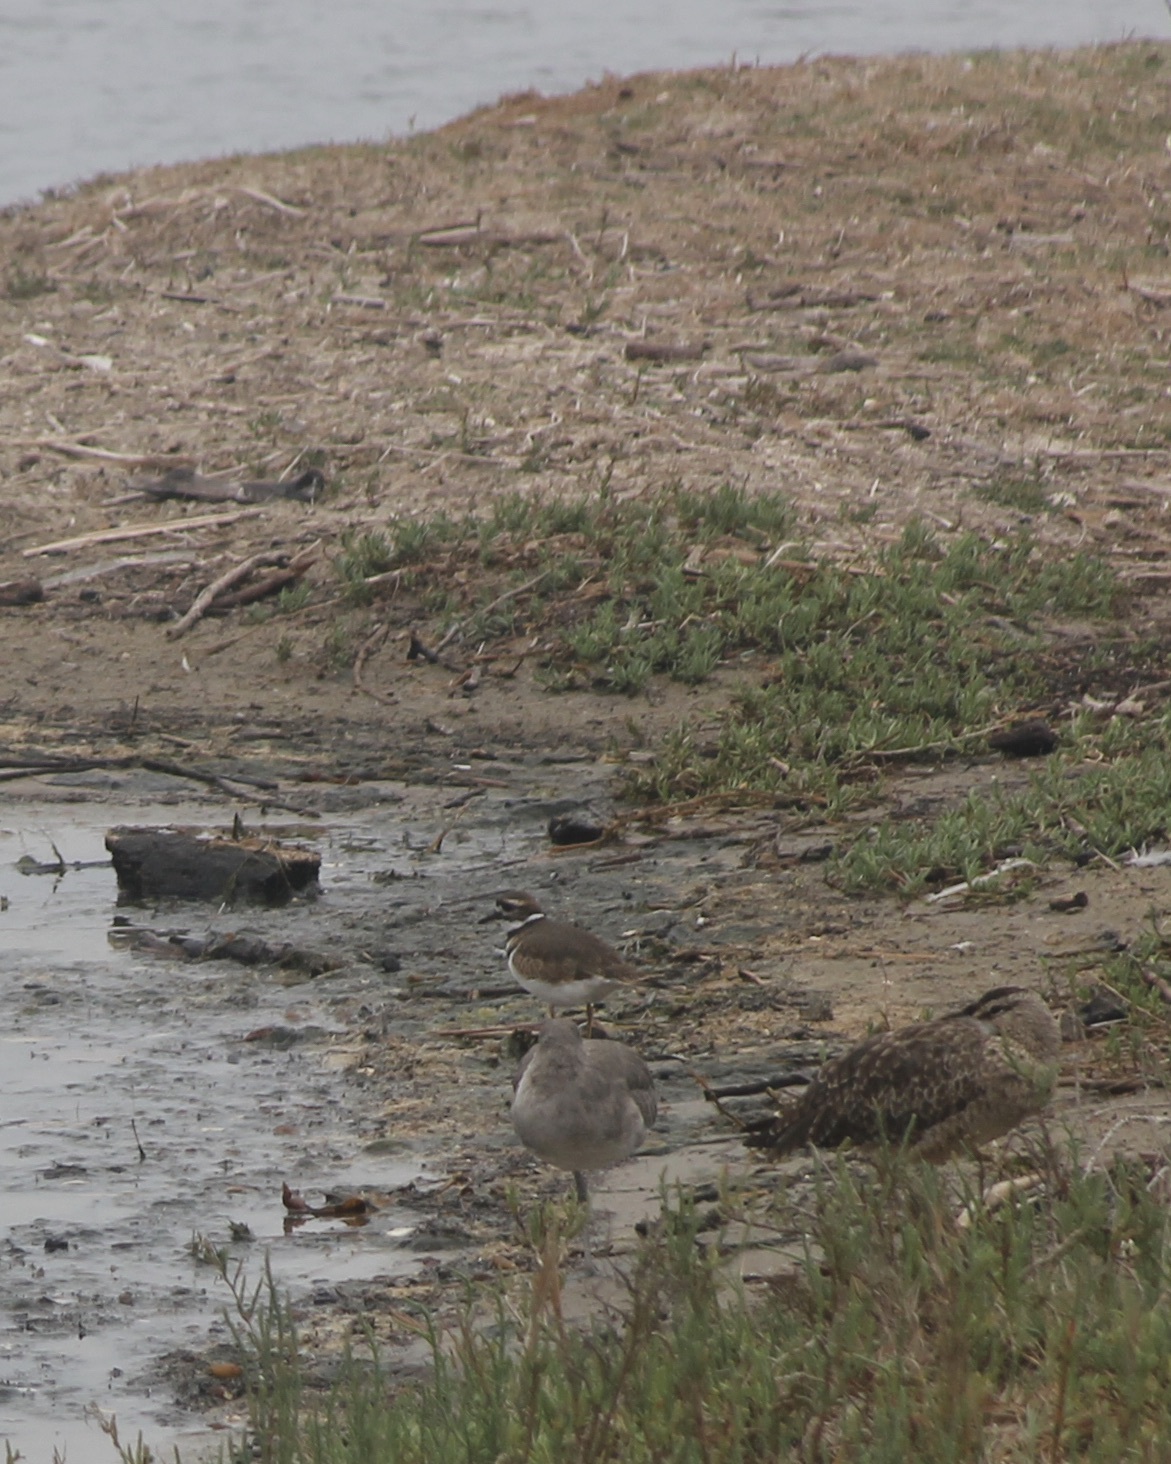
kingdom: Animalia
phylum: Chordata
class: Aves
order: Charadriiformes
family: Charadriidae
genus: Charadrius
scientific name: Charadrius vociferus
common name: Killdeer
